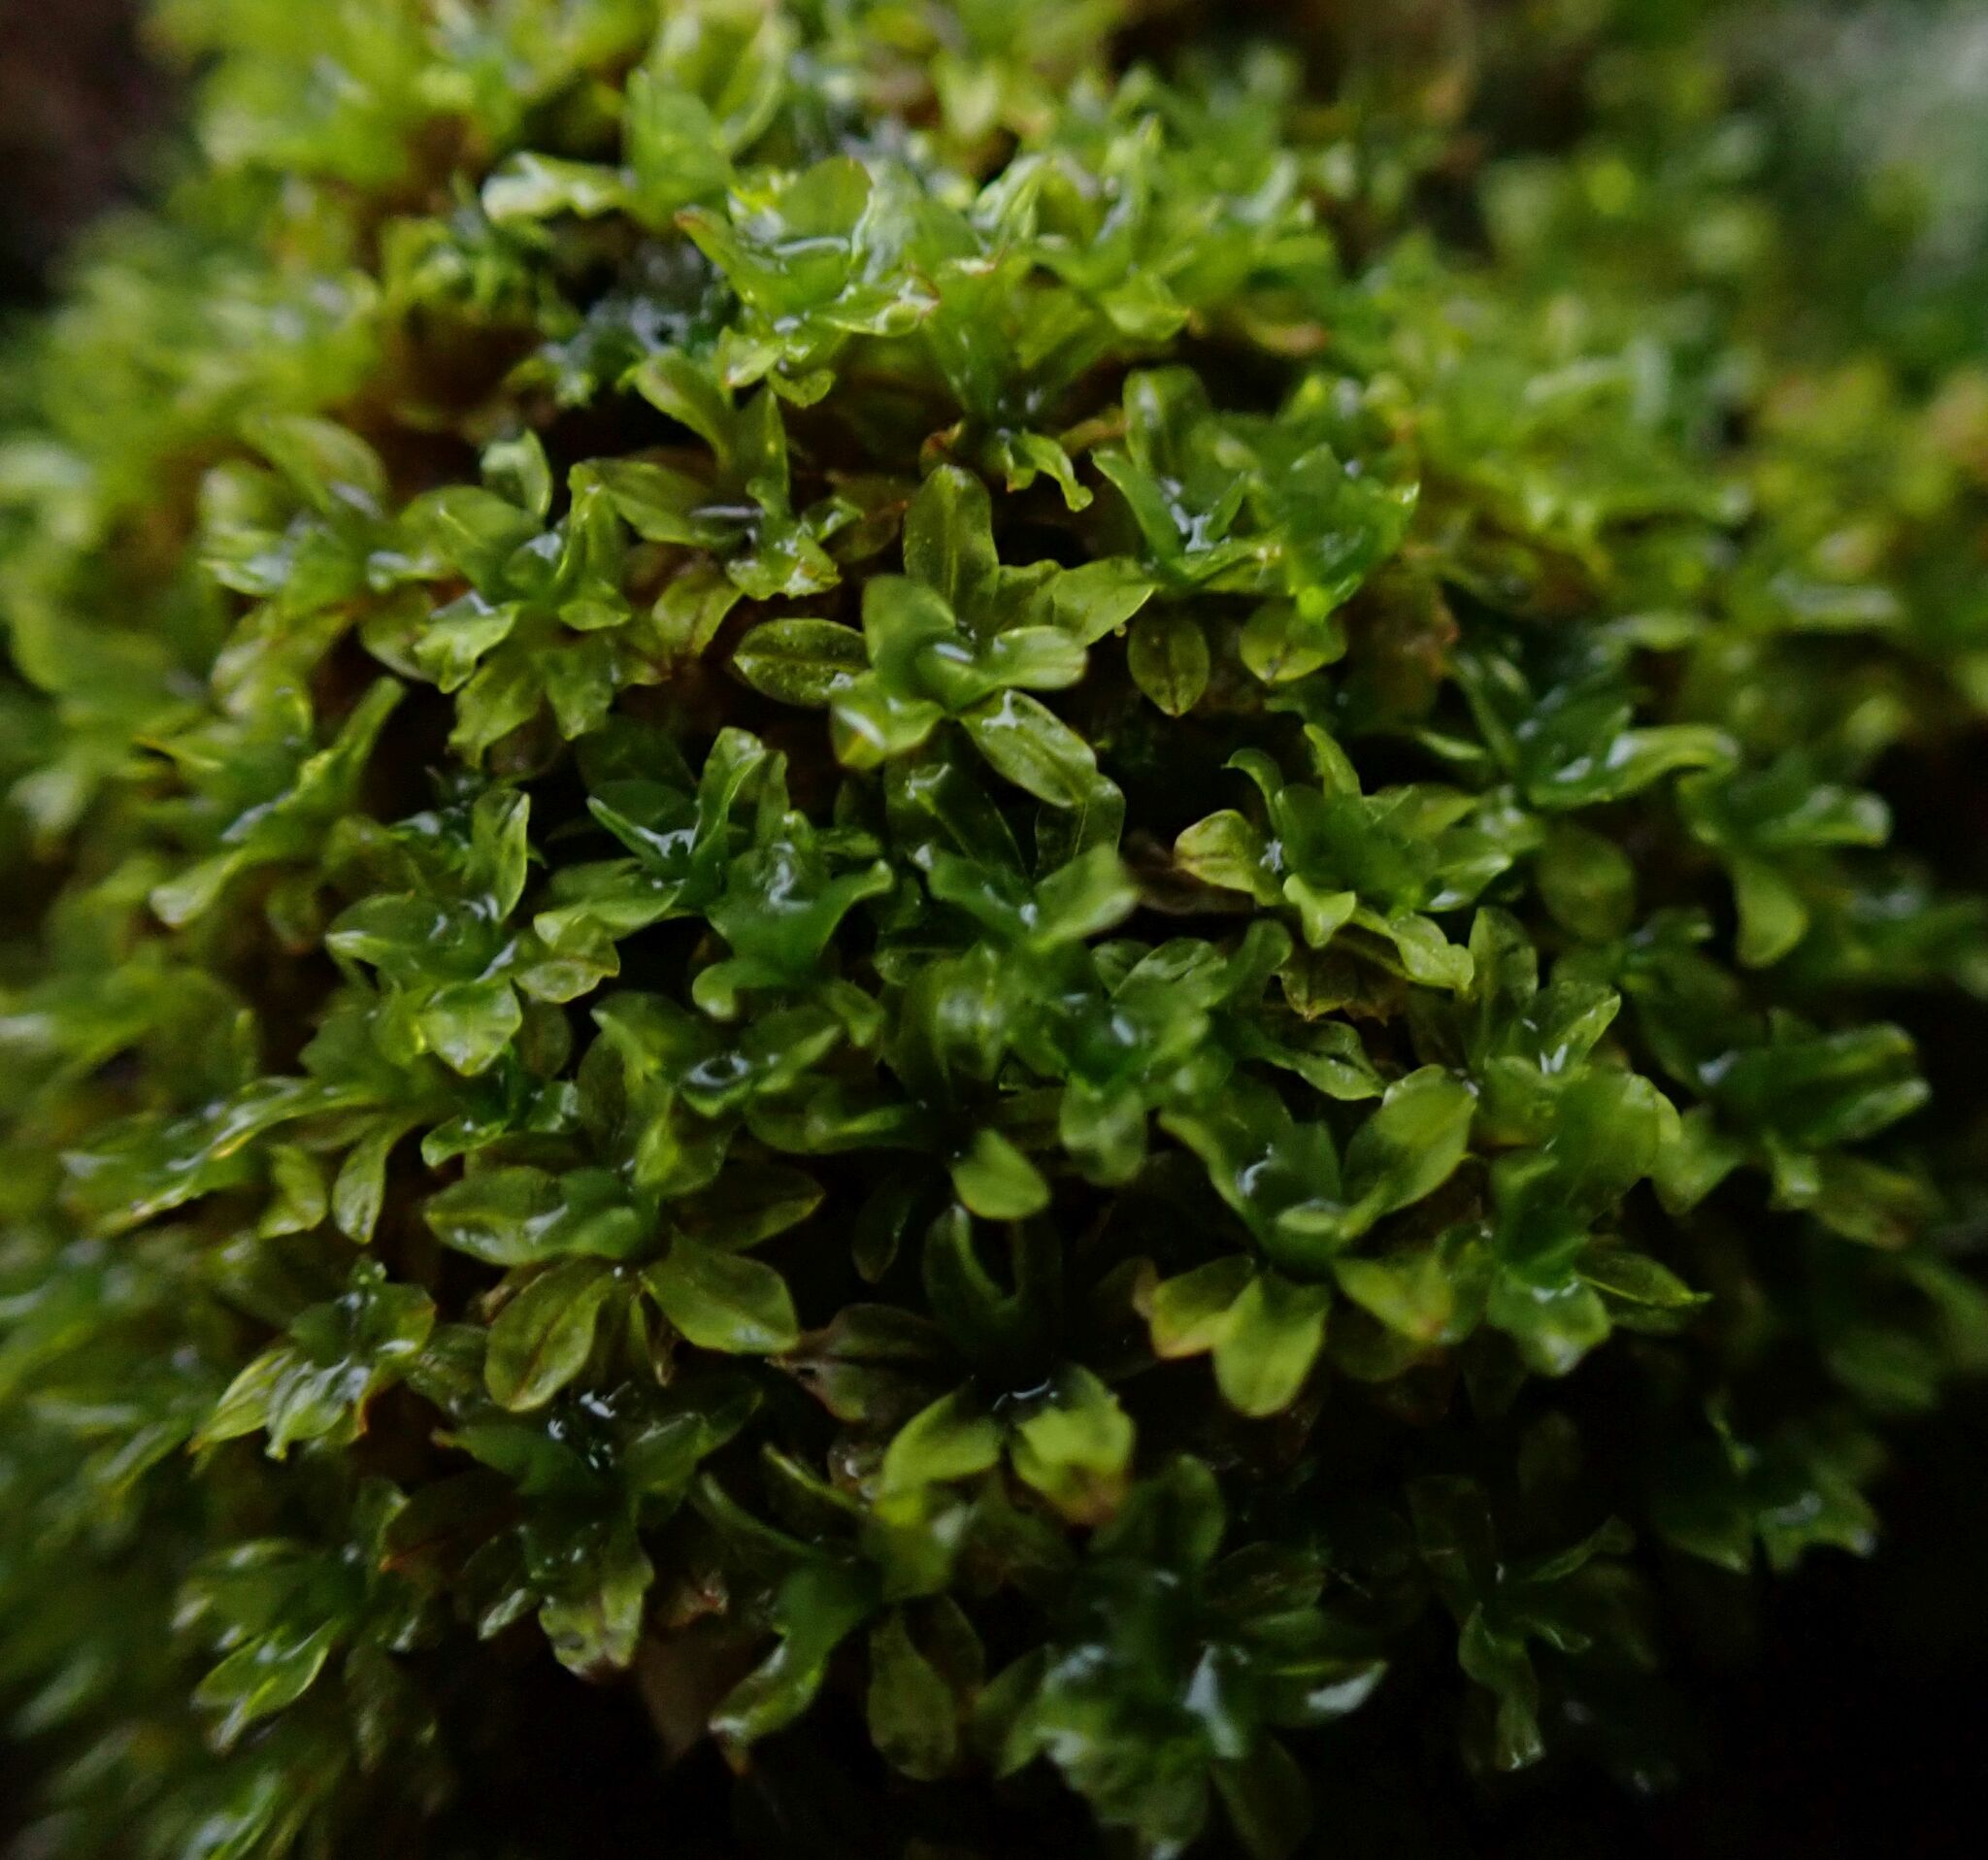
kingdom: Plantae
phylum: Bryophyta
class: Bryopsida
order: Pottiales
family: Pottiaceae
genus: Syntrichia
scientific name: Syntrichia latifolia
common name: Water screw-moss
